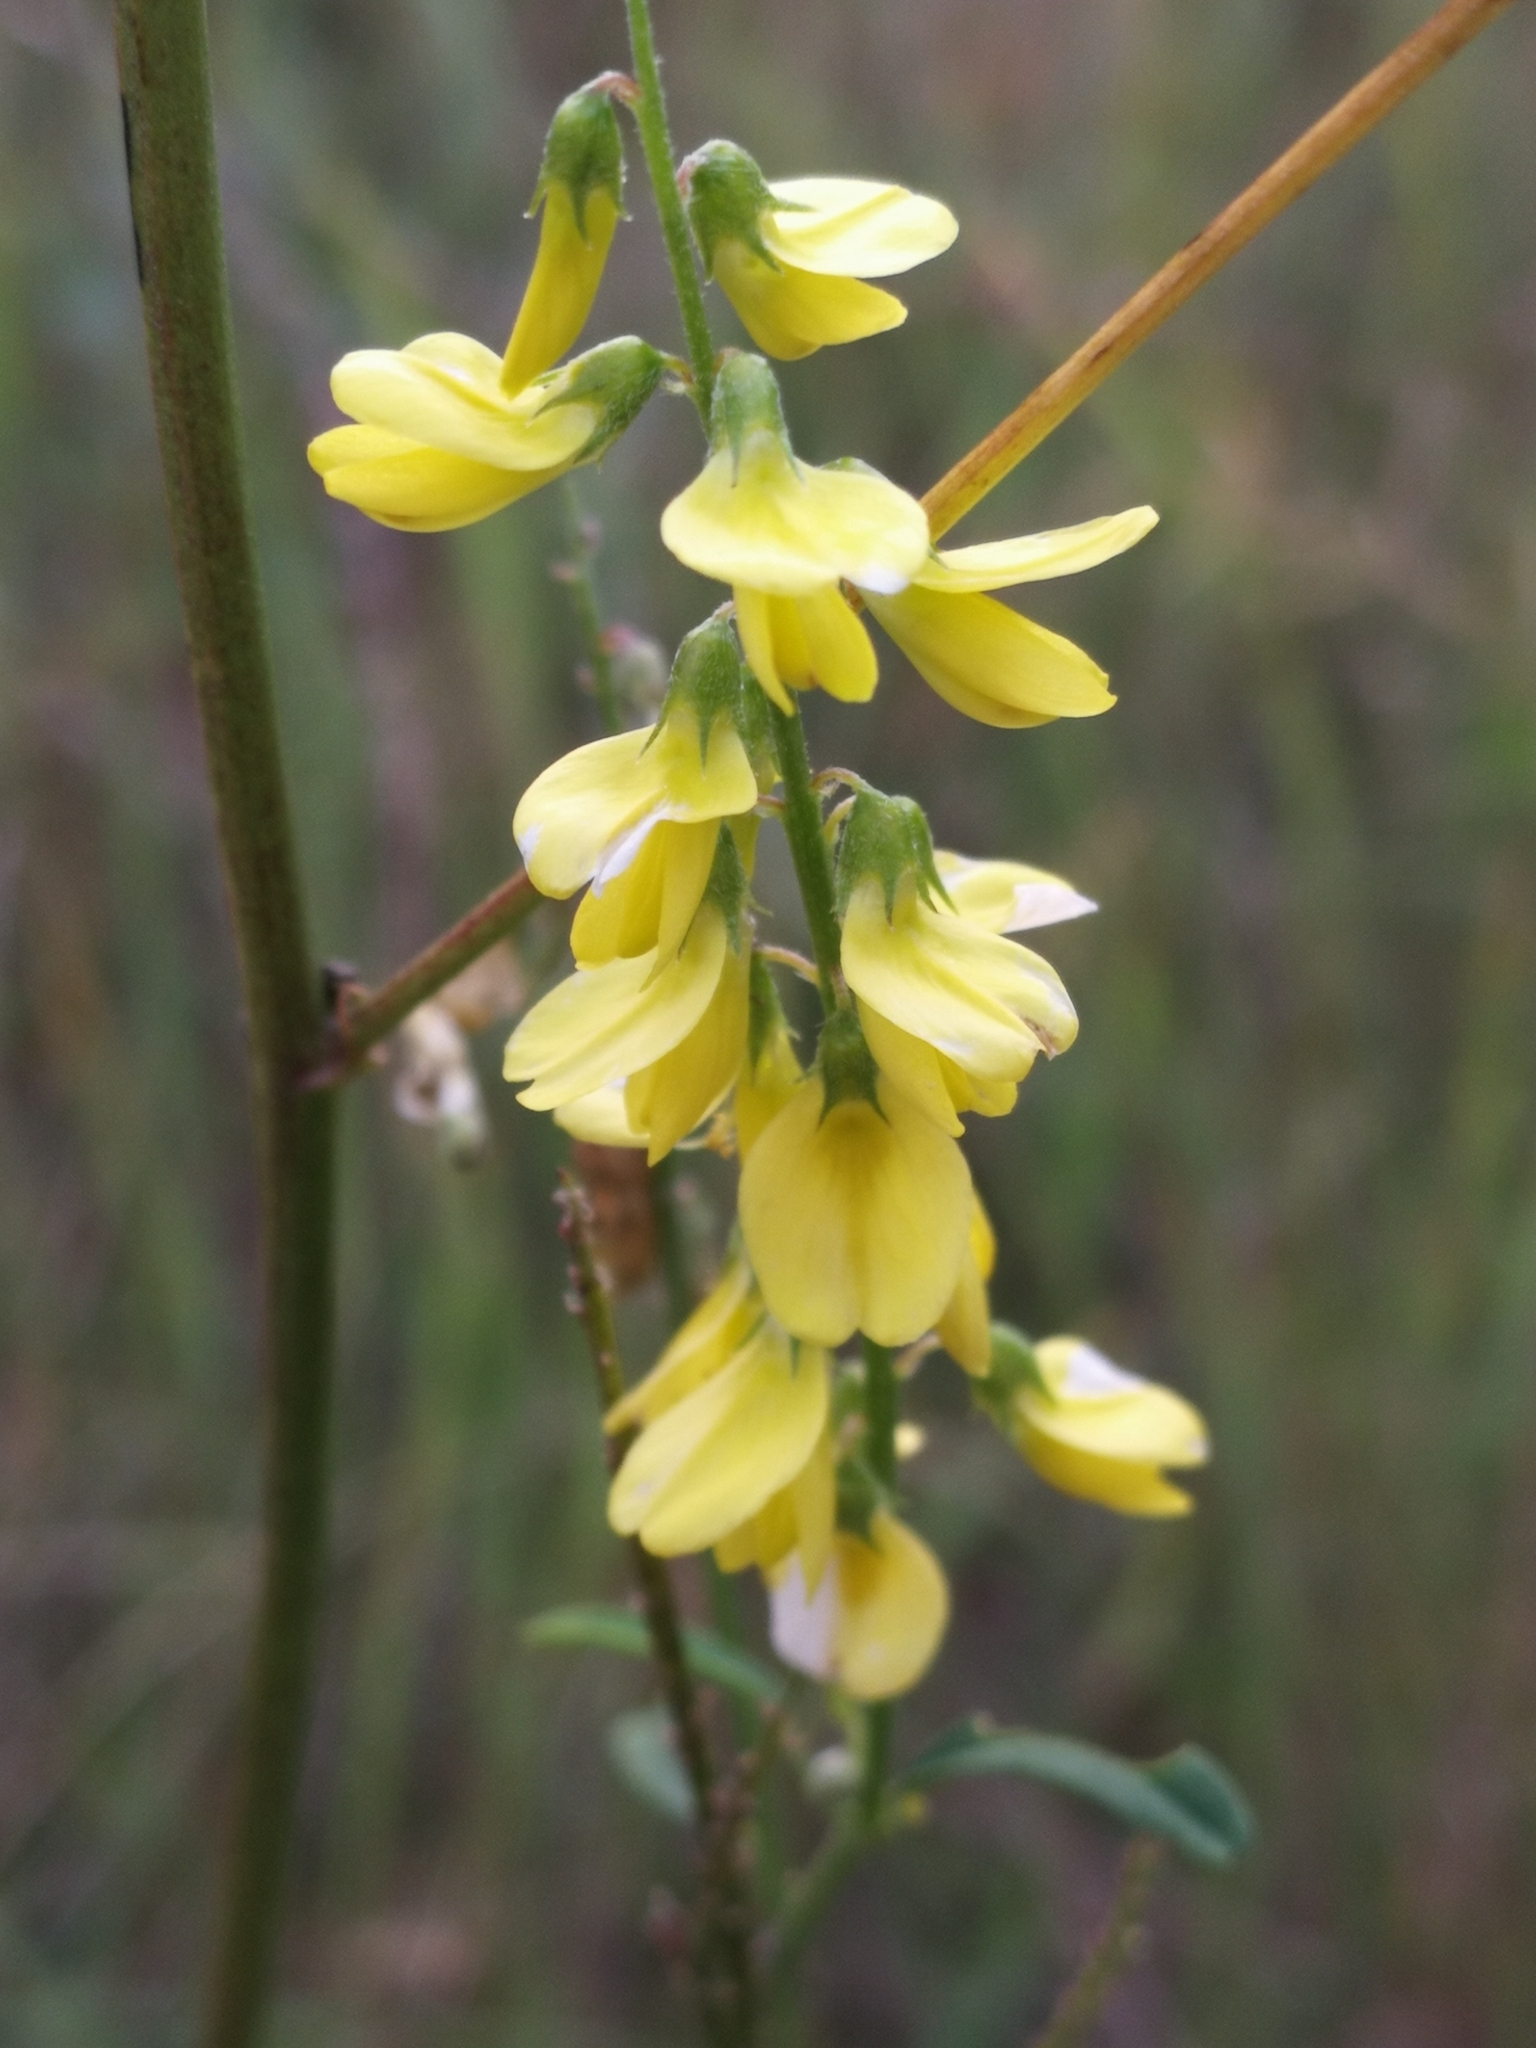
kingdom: Plantae
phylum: Tracheophyta
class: Magnoliopsida
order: Fabales
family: Fabaceae
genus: Melilotus
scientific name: Melilotus officinalis
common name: Sweetclover
